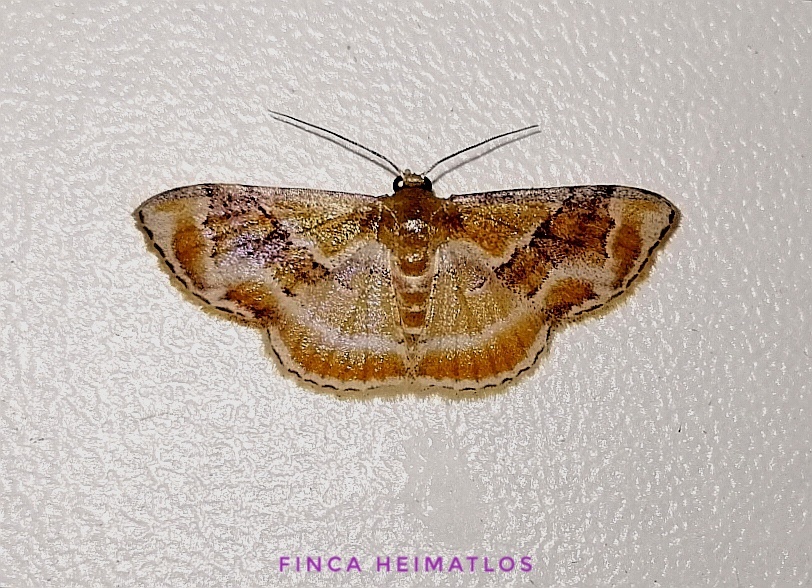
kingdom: Animalia
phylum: Arthropoda
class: Insecta
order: Lepidoptera
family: Geometridae
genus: Leptostales
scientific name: Leptostales adela
